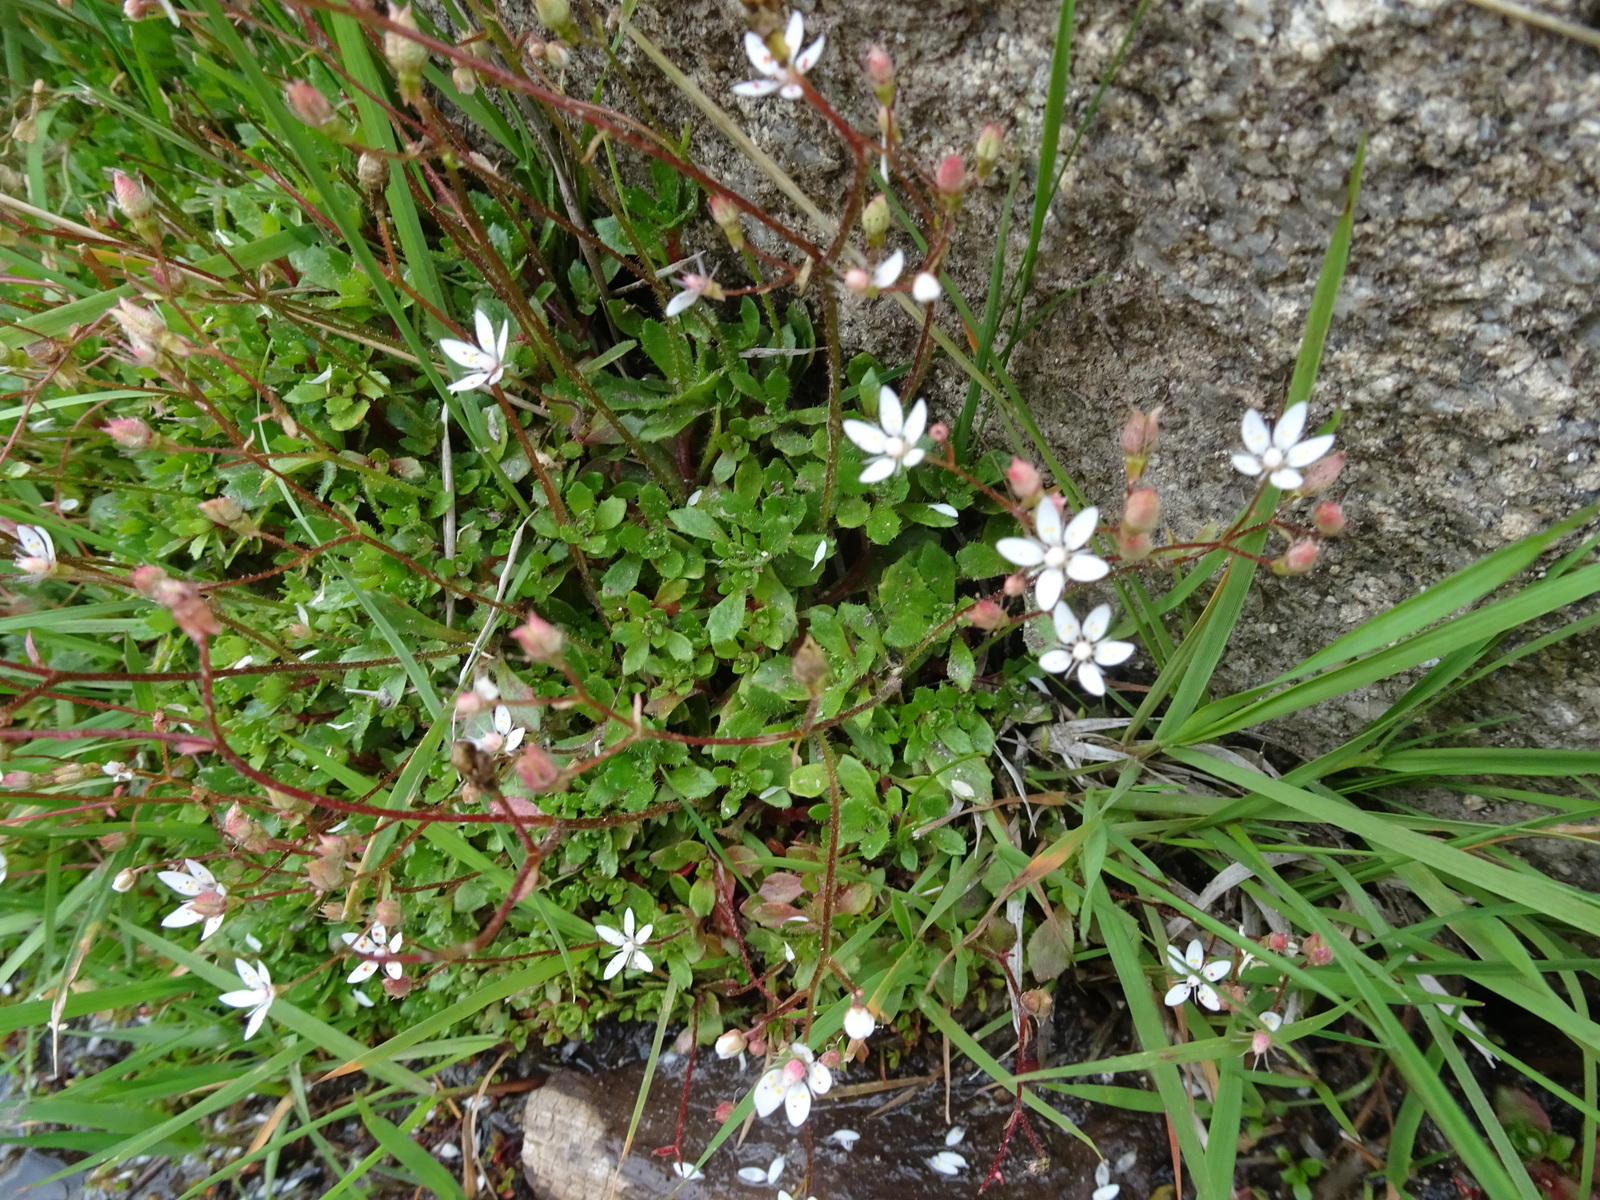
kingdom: Plantae
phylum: Tracheophyta
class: Magnoliopsida
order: Saxifragales
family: Saxifragaceae
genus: Micranthes
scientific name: Micranthes stellaris
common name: Starry saxifrage
